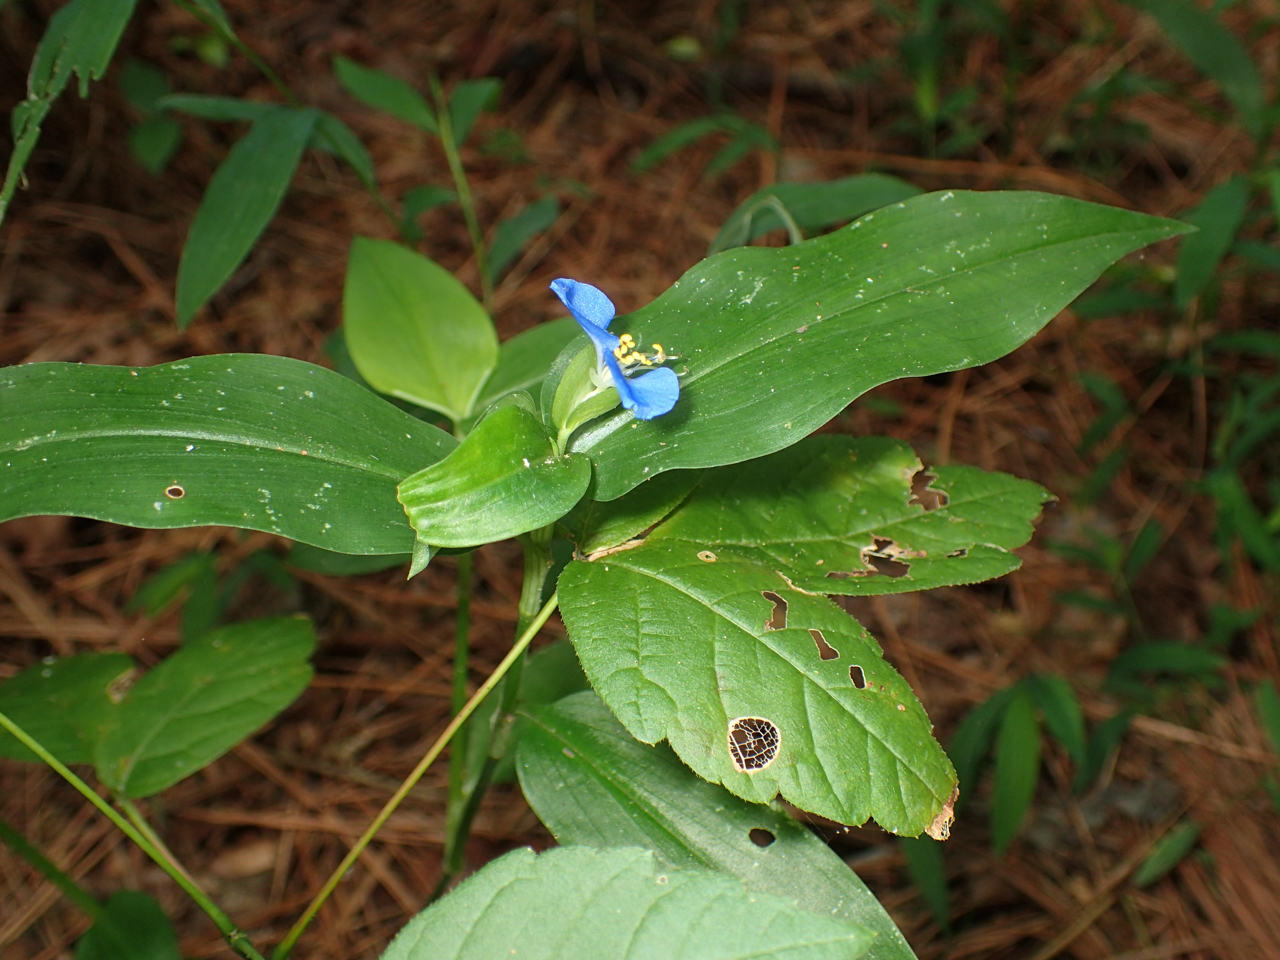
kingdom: Plantae
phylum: Tracheophyta
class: Liliopsida
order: Commelinales
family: Commelinaceae
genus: Commelina
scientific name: Commelina communis
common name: Asiatic dayflower
